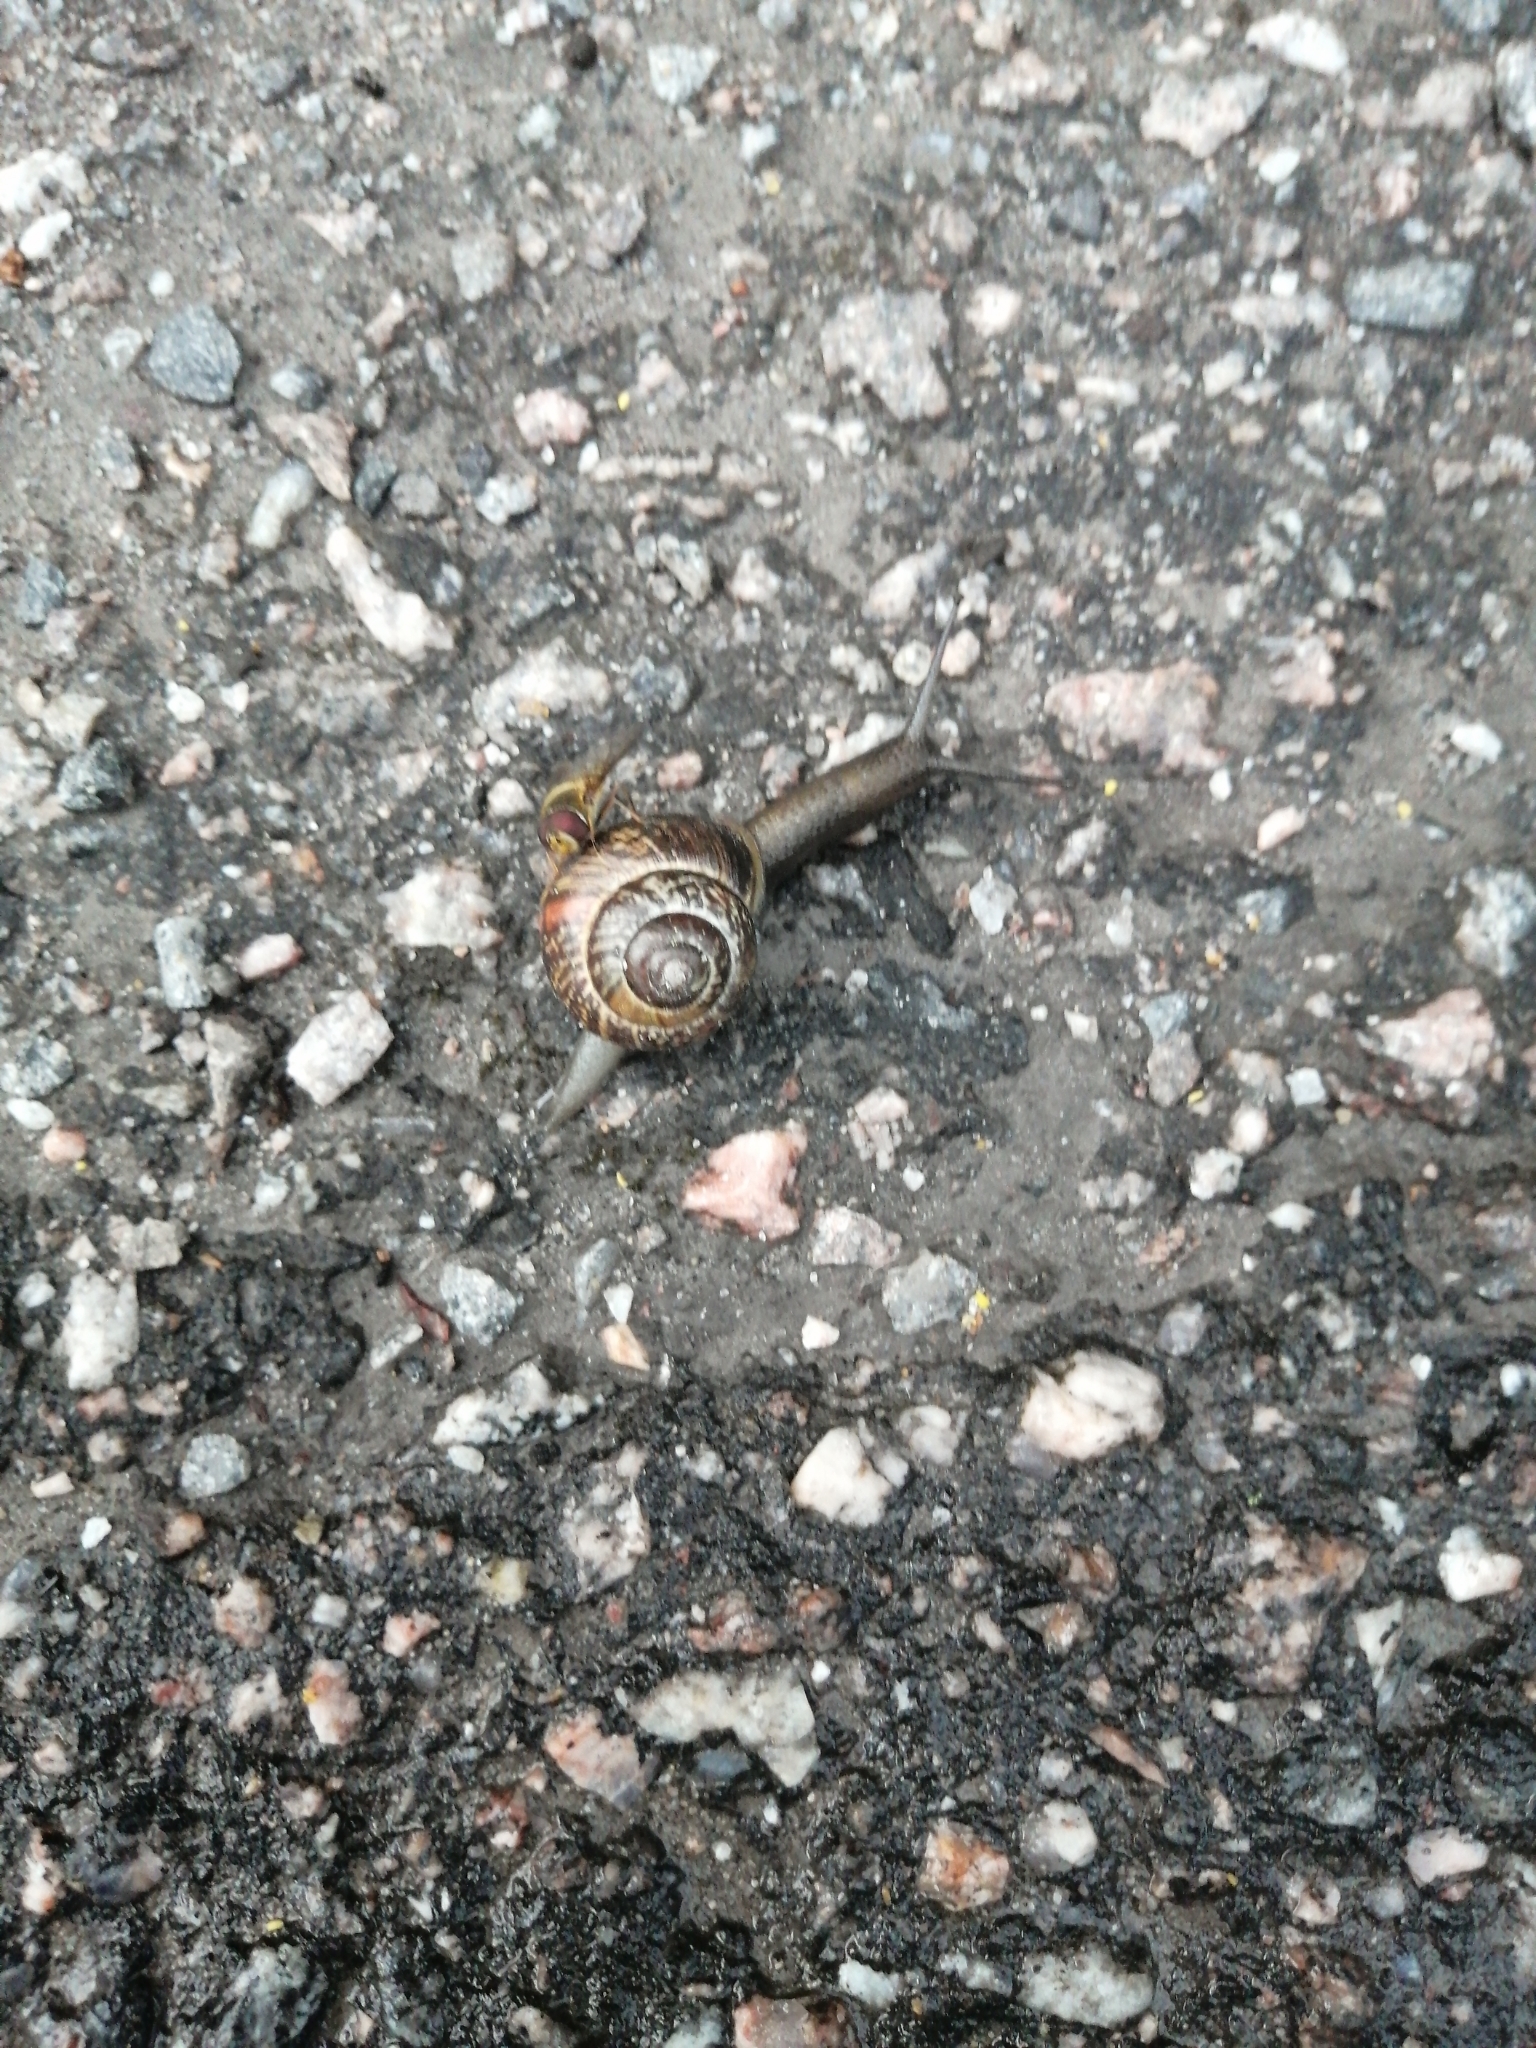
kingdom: Animalia
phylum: Mollusca
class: Gastropoda
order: Stylommatophora
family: Helicidae
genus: Arianta
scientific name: Arianta arbustorum
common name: Copse snail
